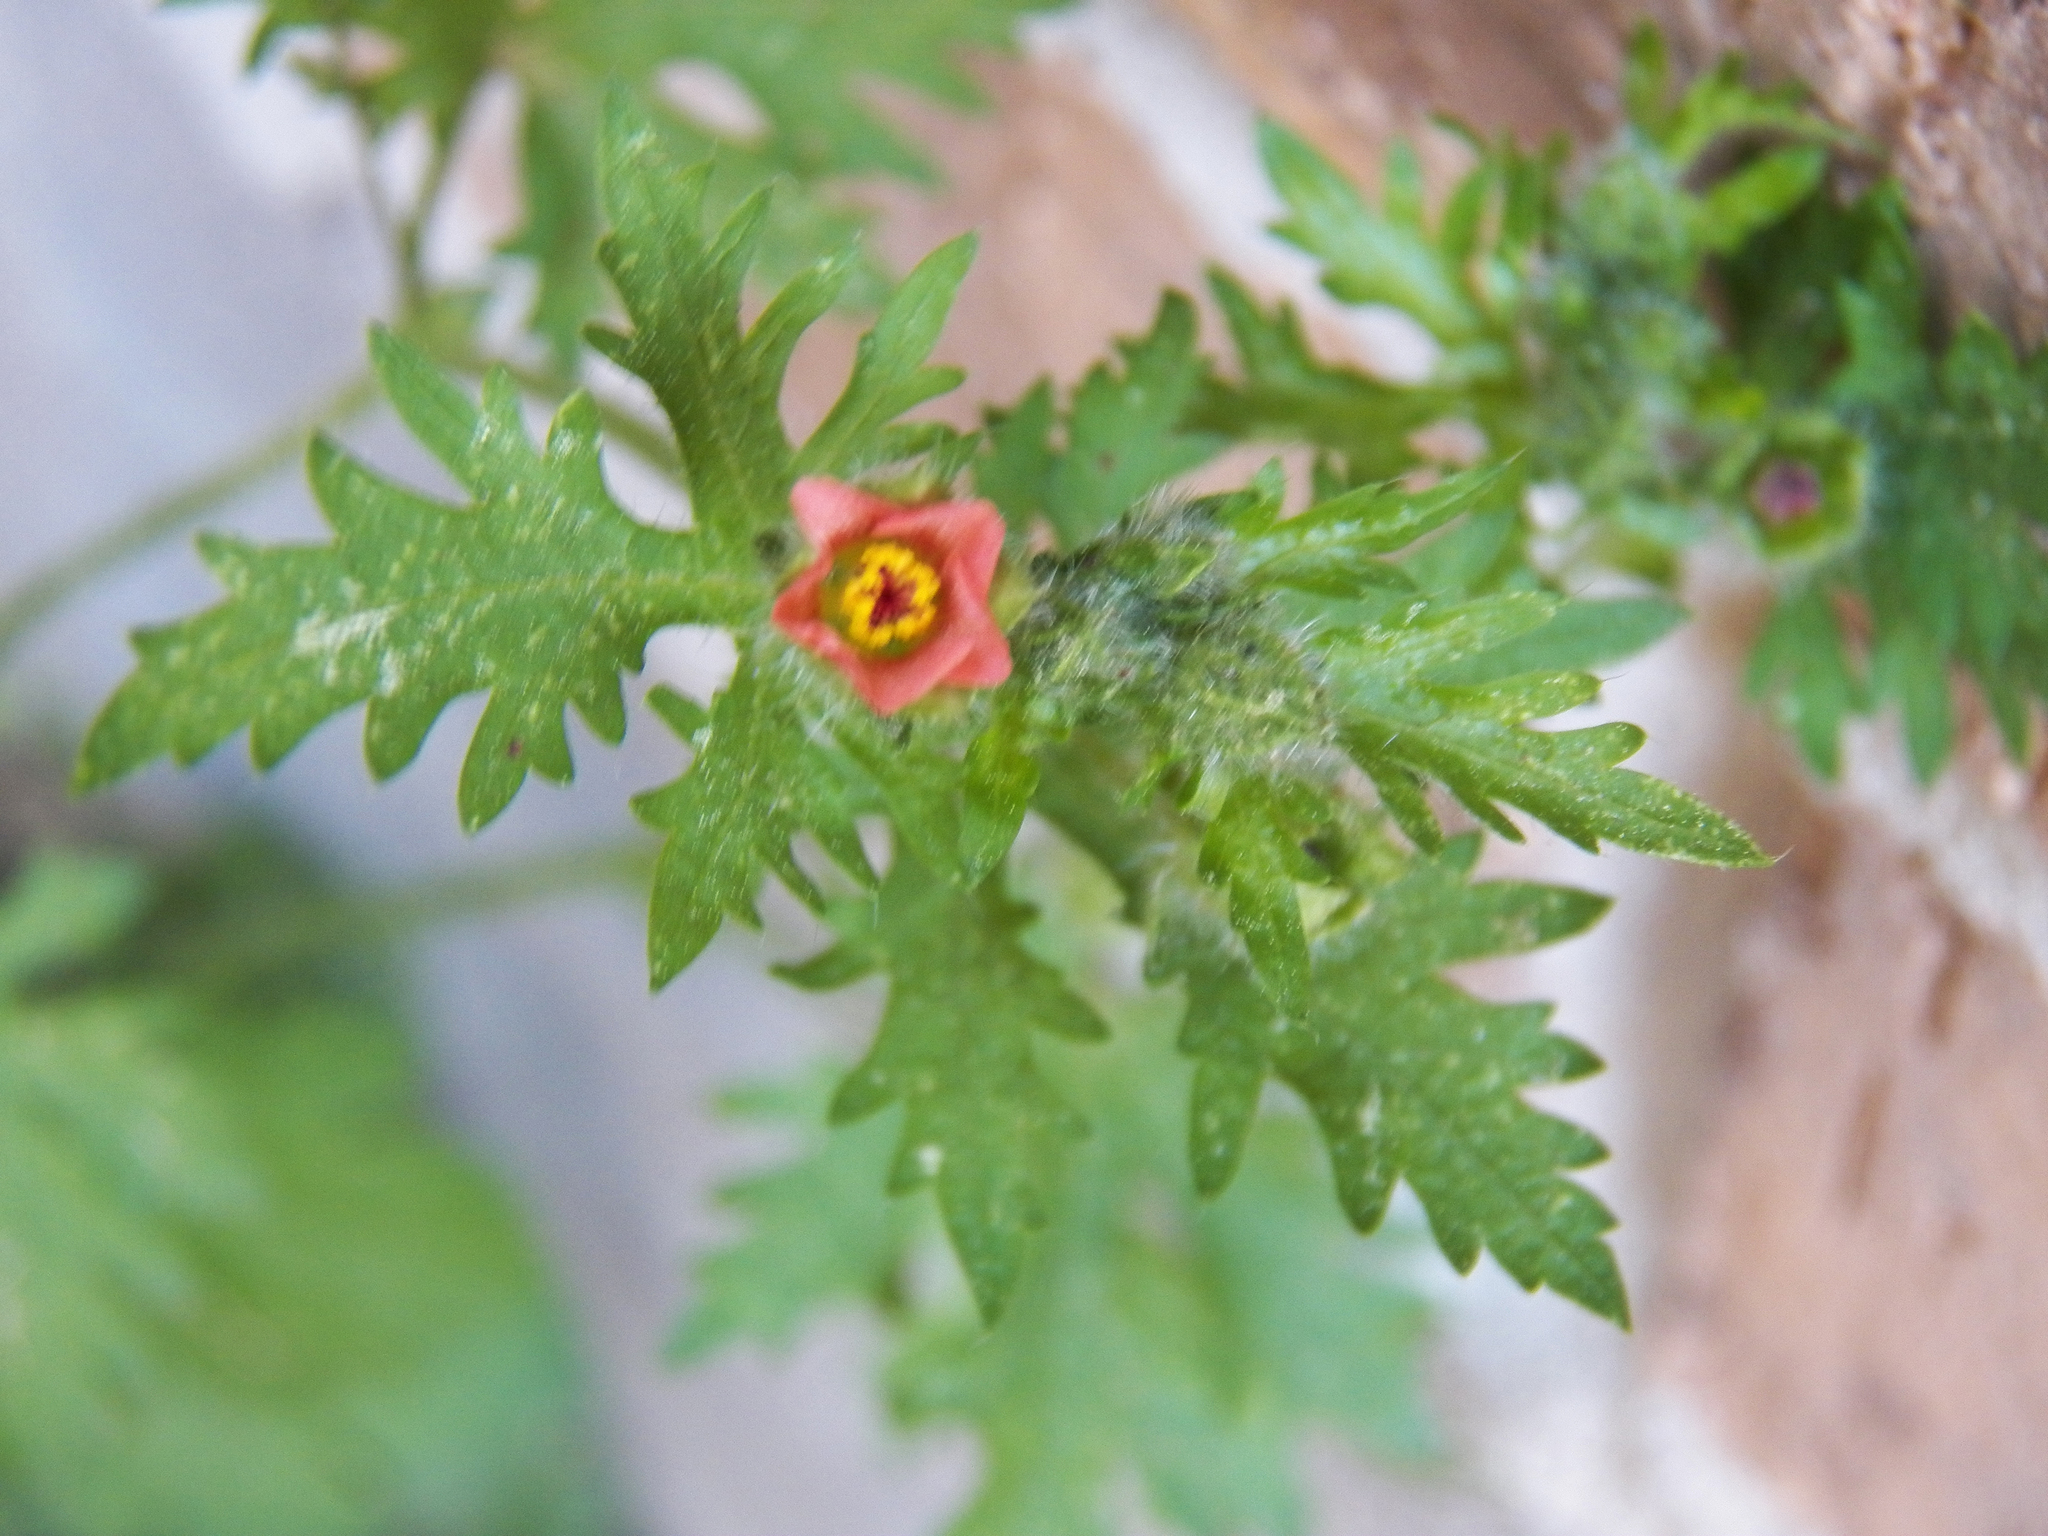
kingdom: Plantae
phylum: Tracheophyta
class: Magnoliopsida
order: Malvales
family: Malvaceae
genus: Modiola
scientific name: Modiola caroliniana
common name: Carolina bristlemallow
